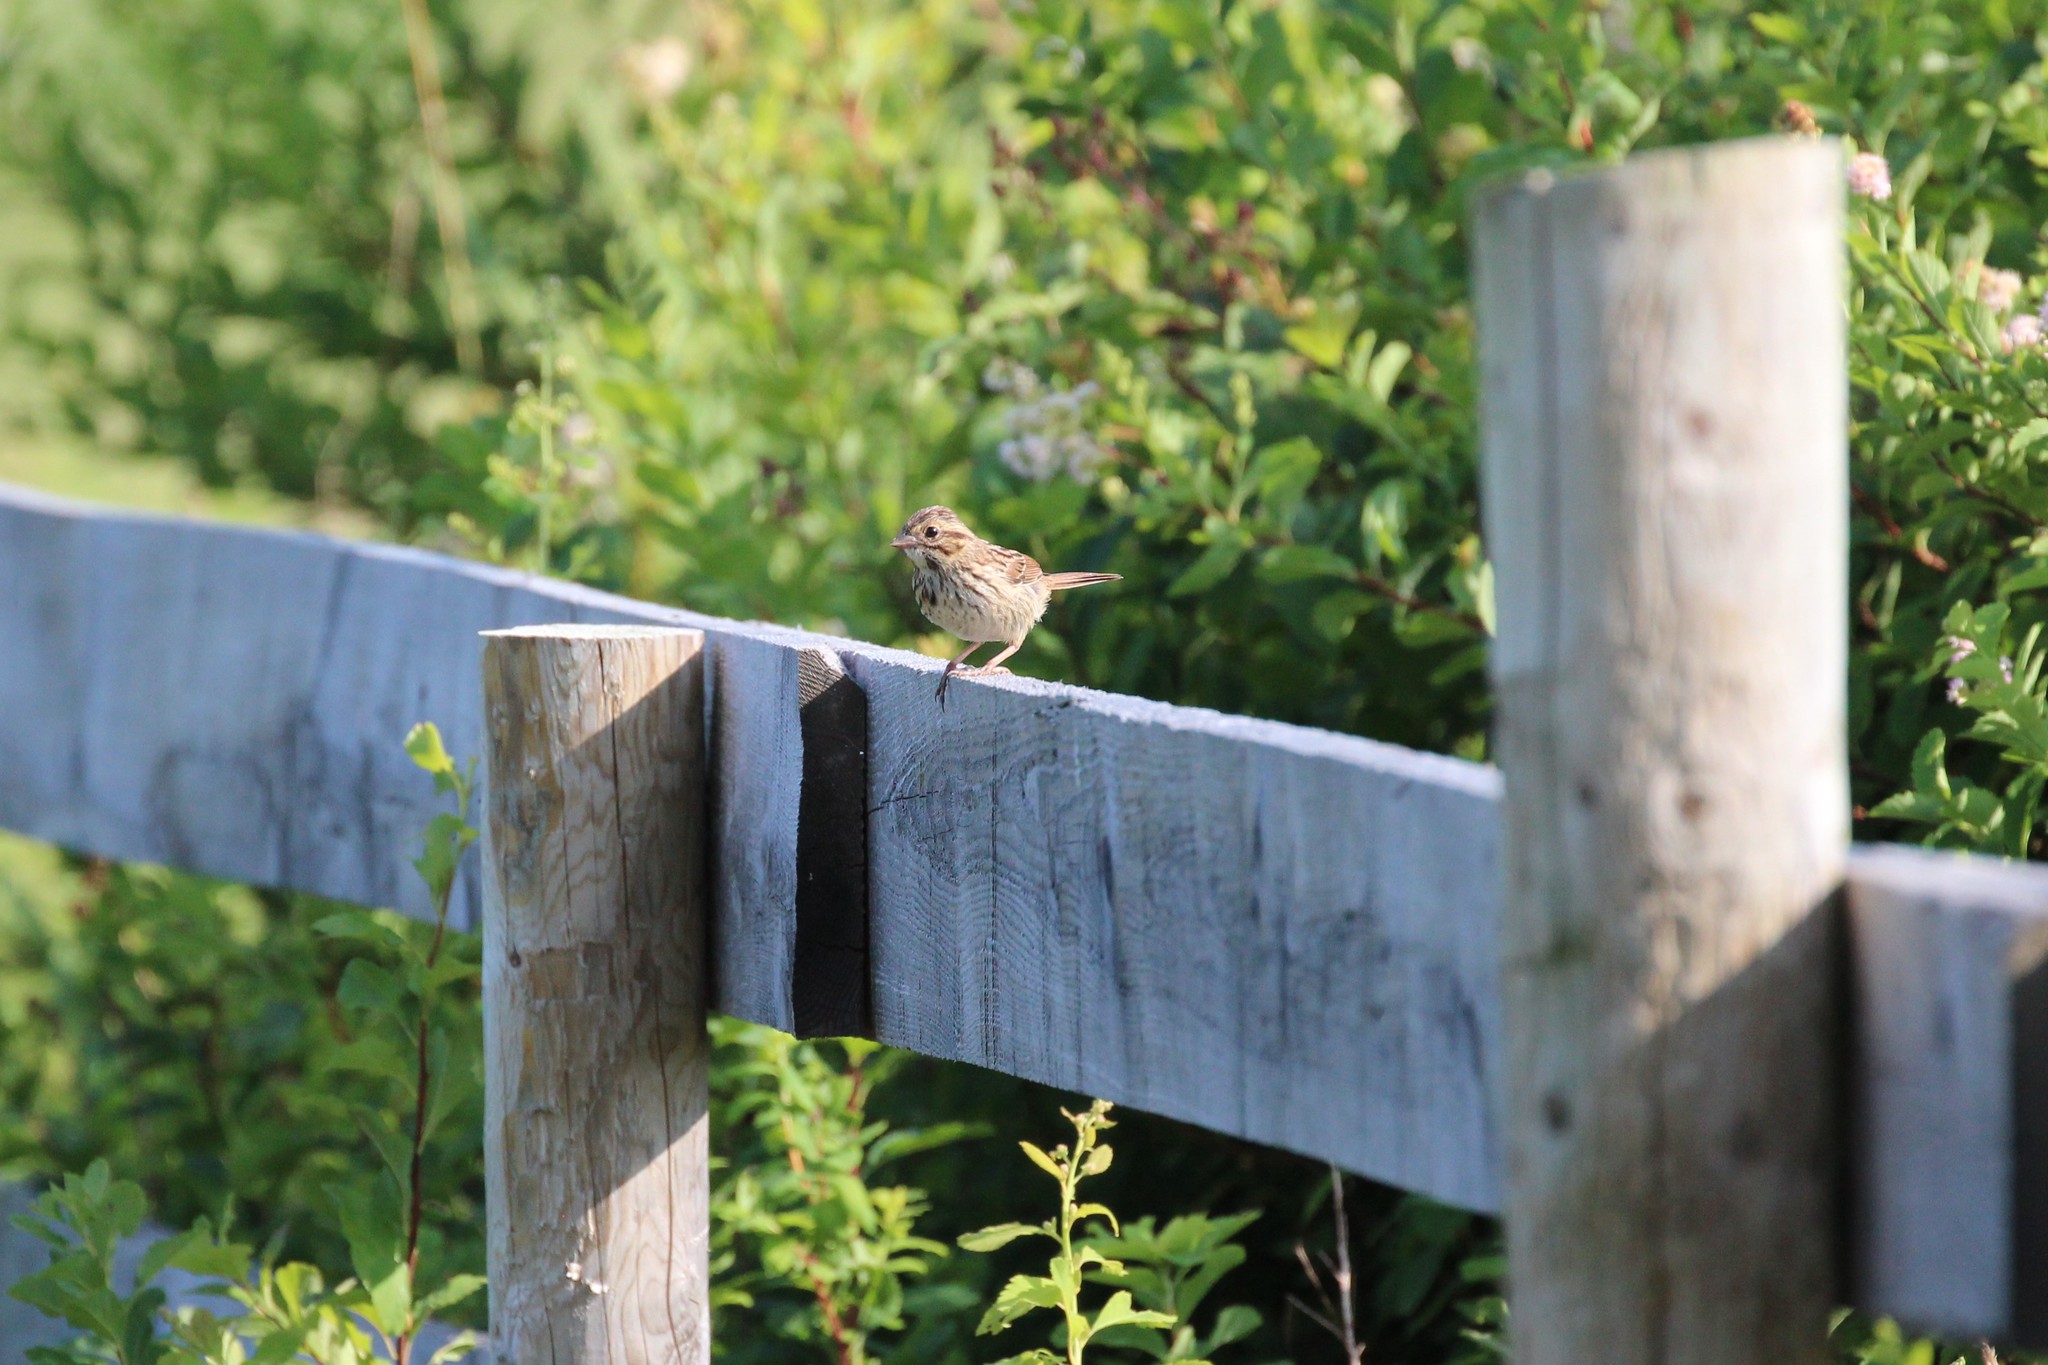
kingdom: Animalia
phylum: Chordata
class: Aves
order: Passeriformes
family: Passerellidae
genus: Melospiza
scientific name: Melospiza melodia
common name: Song sparrow
